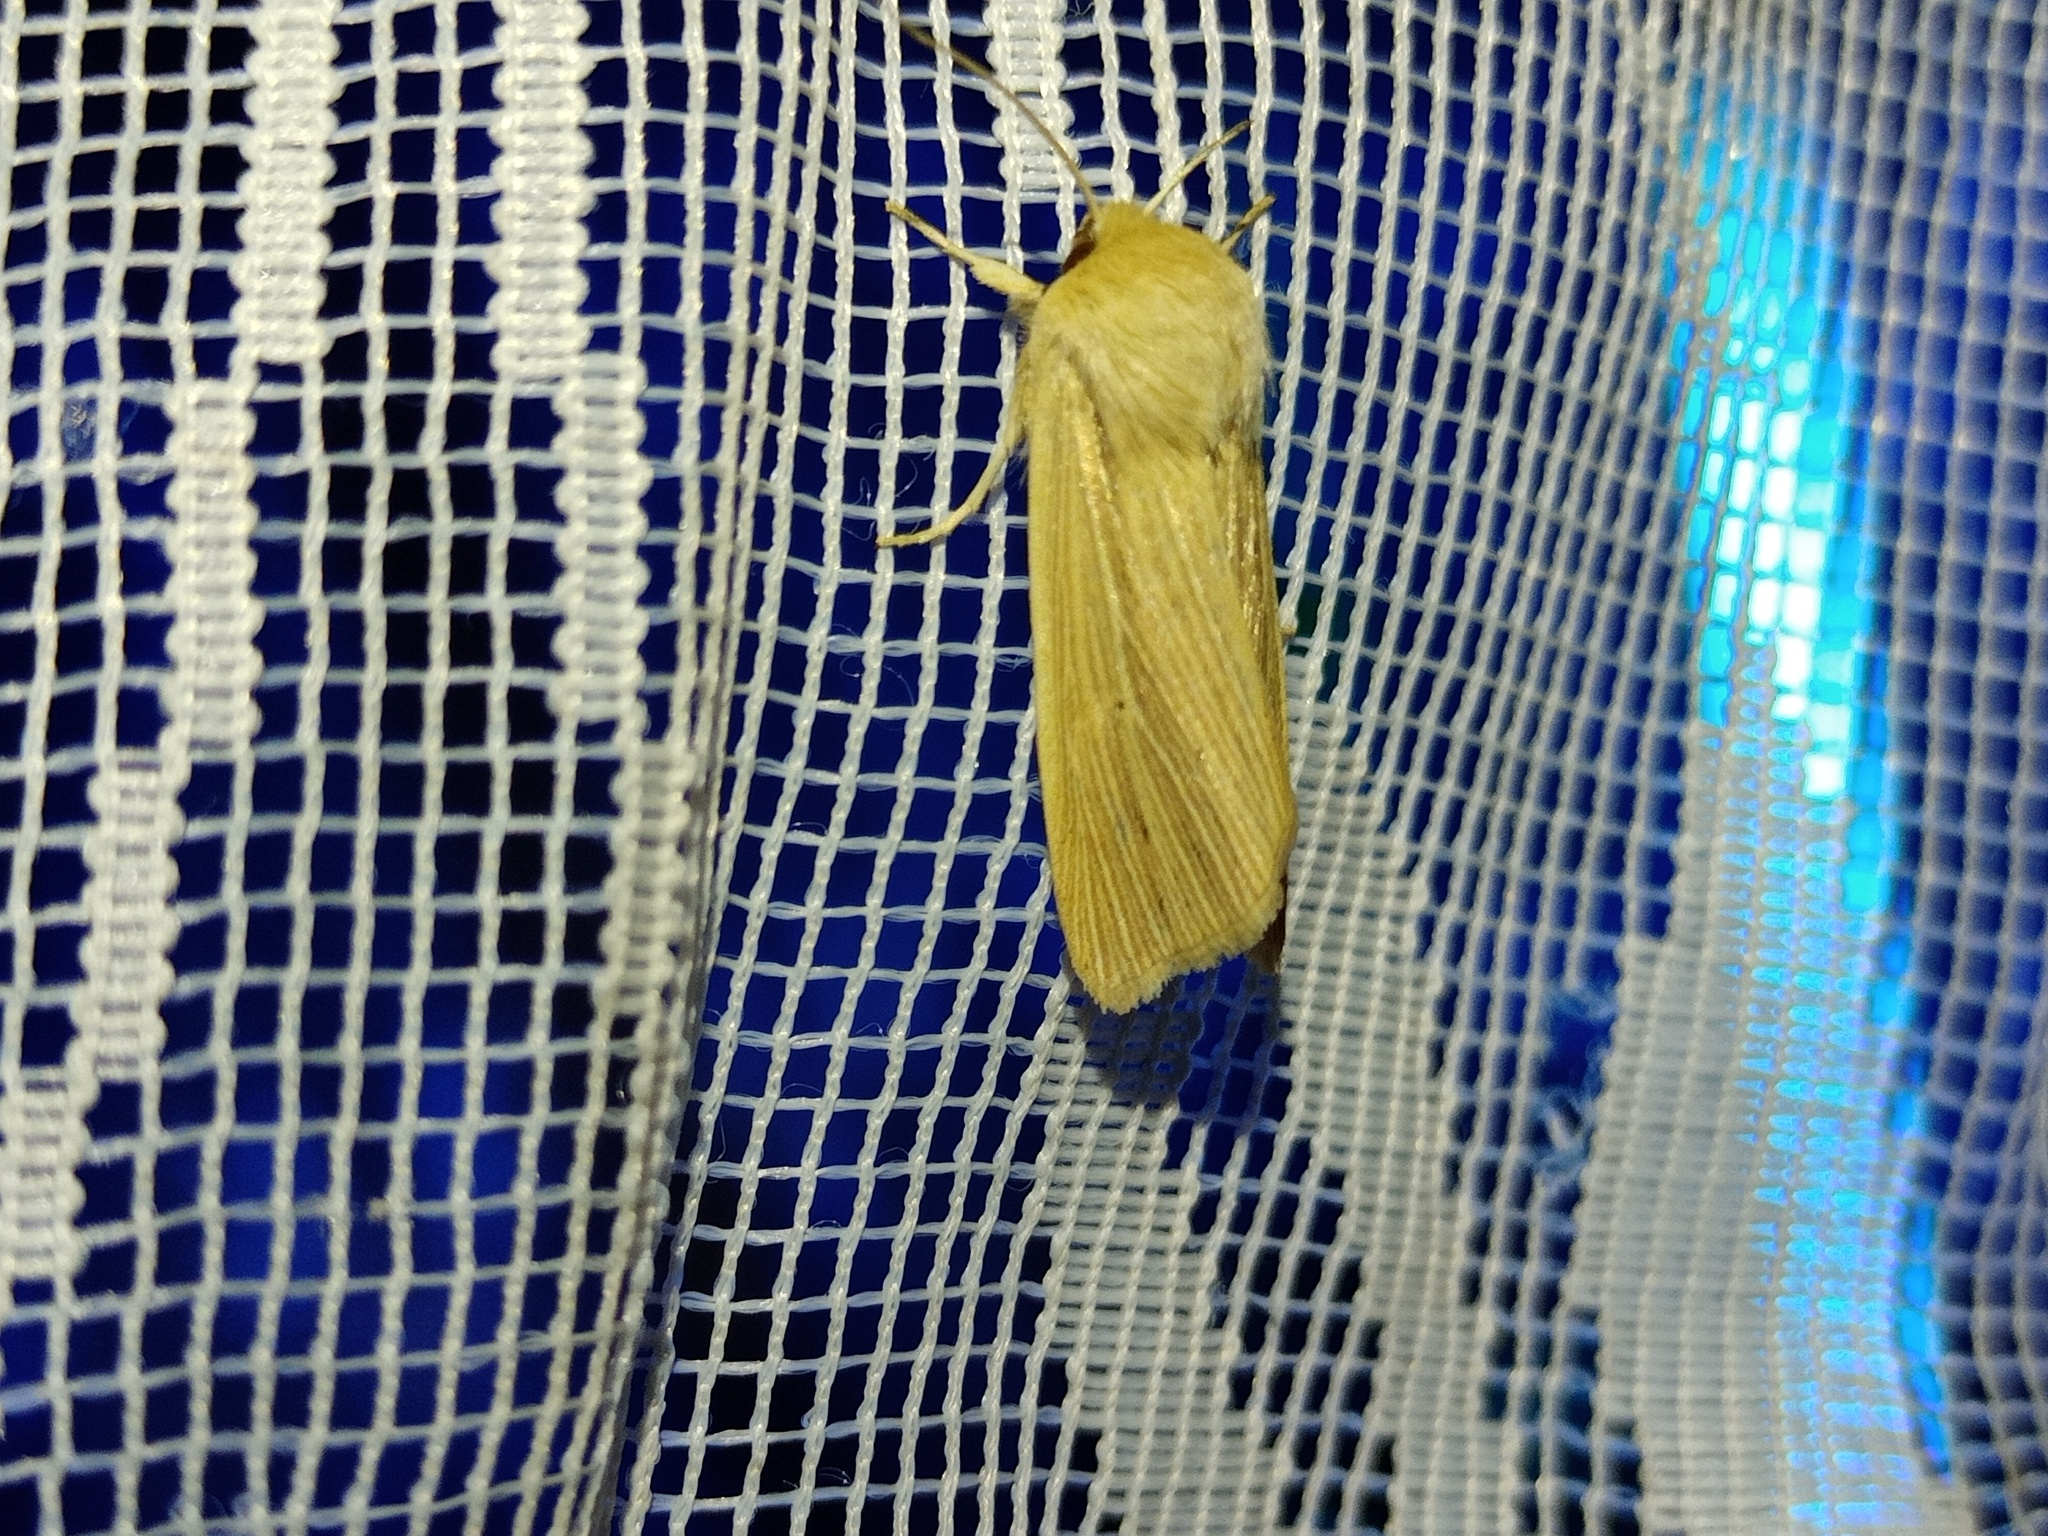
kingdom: Animalia
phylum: Arthropoda
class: Insecta
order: Lepidoptera
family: Noctuidae
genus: Mythimna
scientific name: Mythimna pallens
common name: Common wainscot
